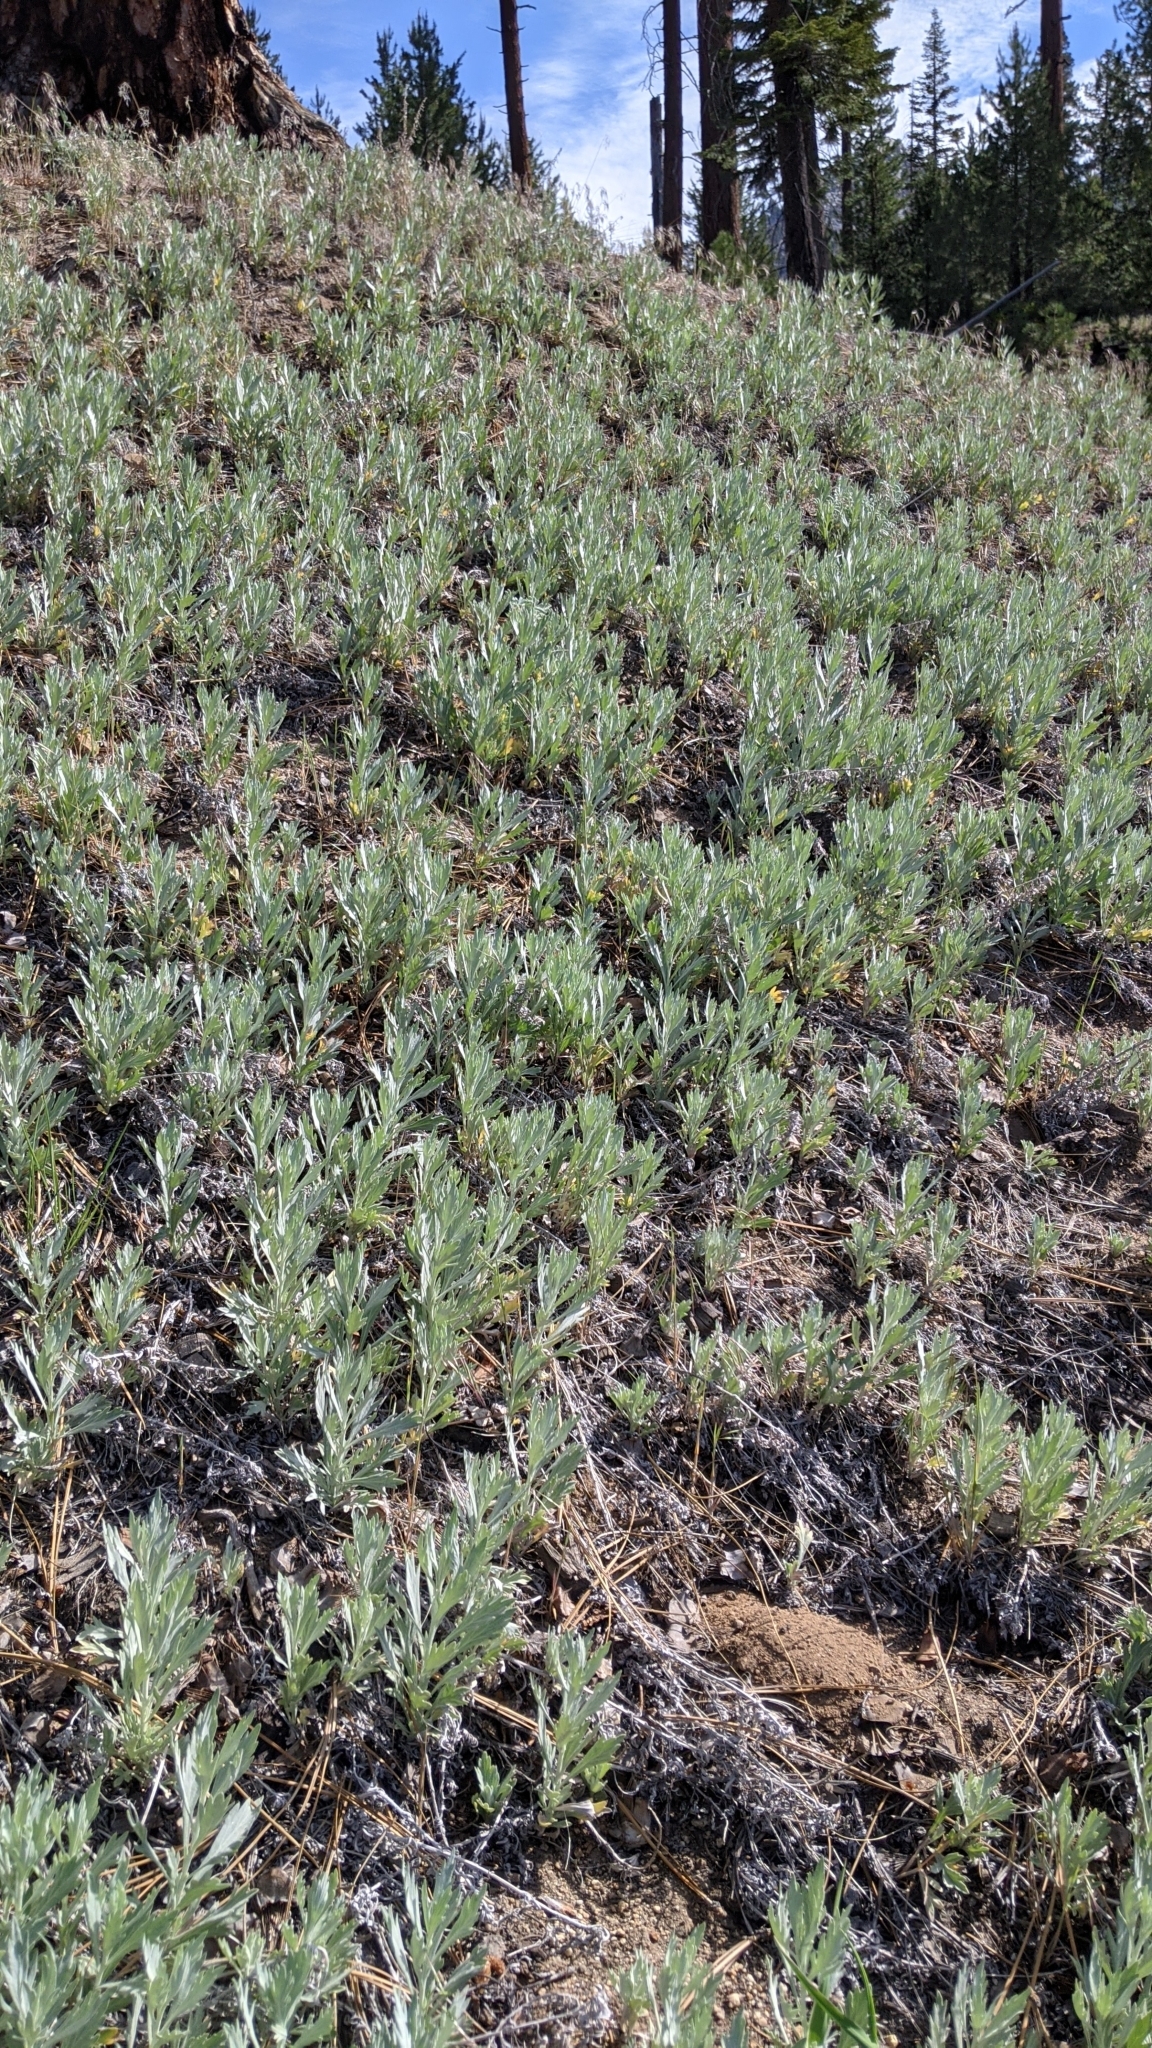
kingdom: Plantae
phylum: Tracheophyta
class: Magnoliopsida
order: Asterales
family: Asteraceae
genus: Artemisia
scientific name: Artemisia douglasiana
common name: Northwest mugwort
